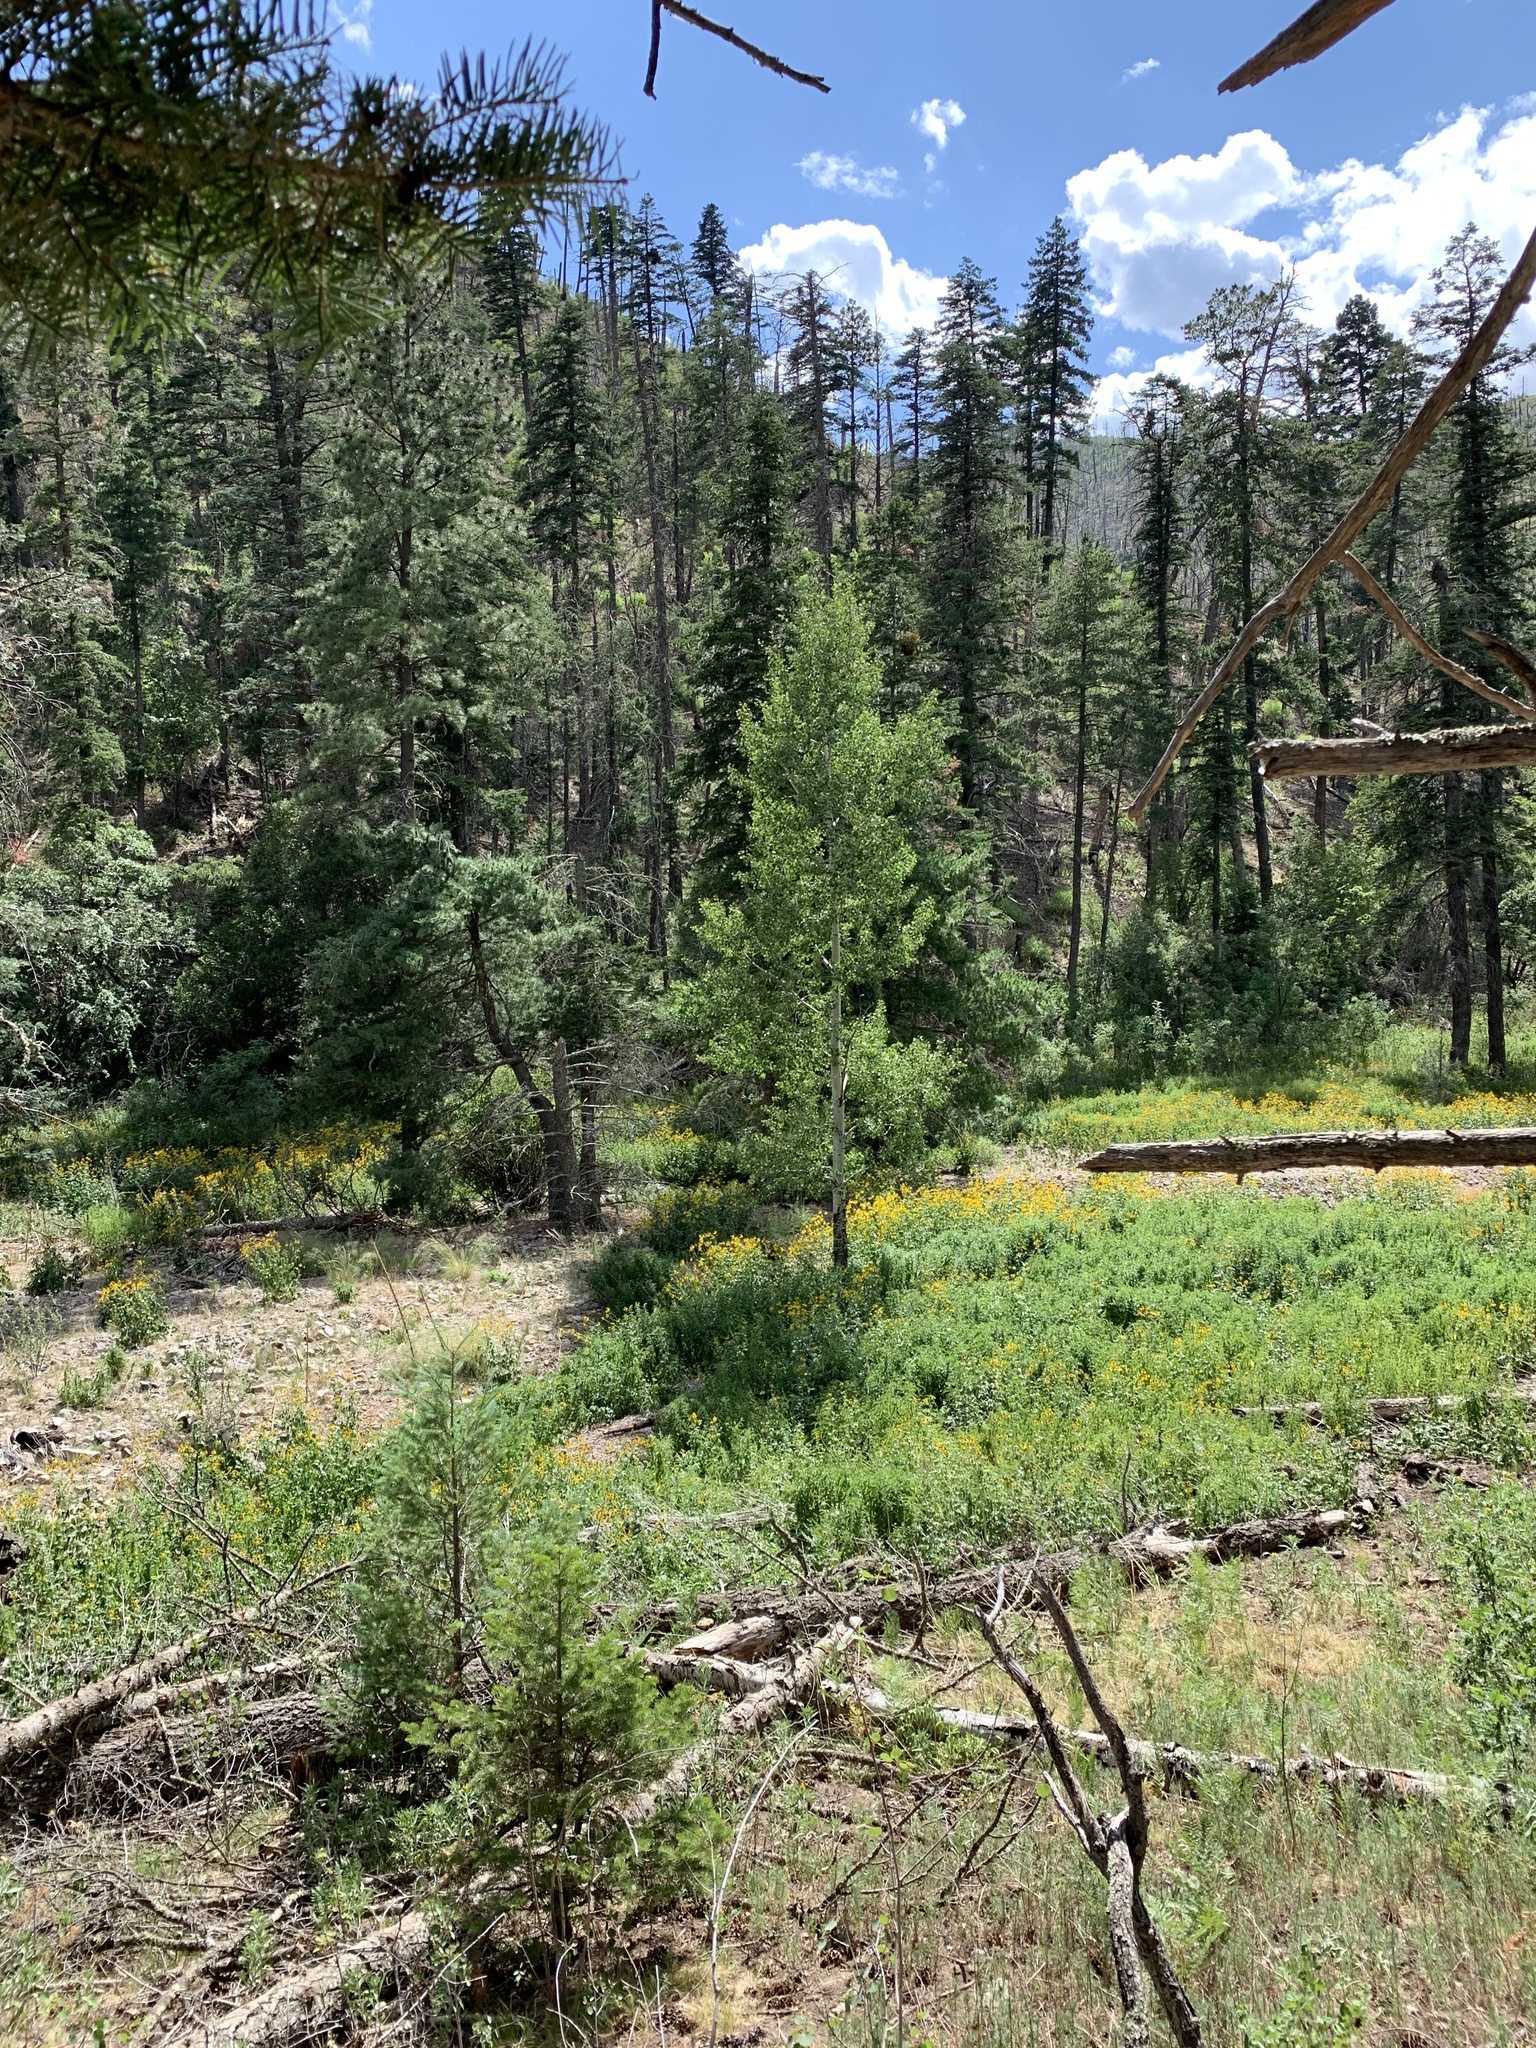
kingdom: Plantae
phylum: Tracheophyta
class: Magnoliopsida
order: Malpighiales
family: Salicaceae
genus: Populus
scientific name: Populus tremuloides
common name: Quaking aspen
